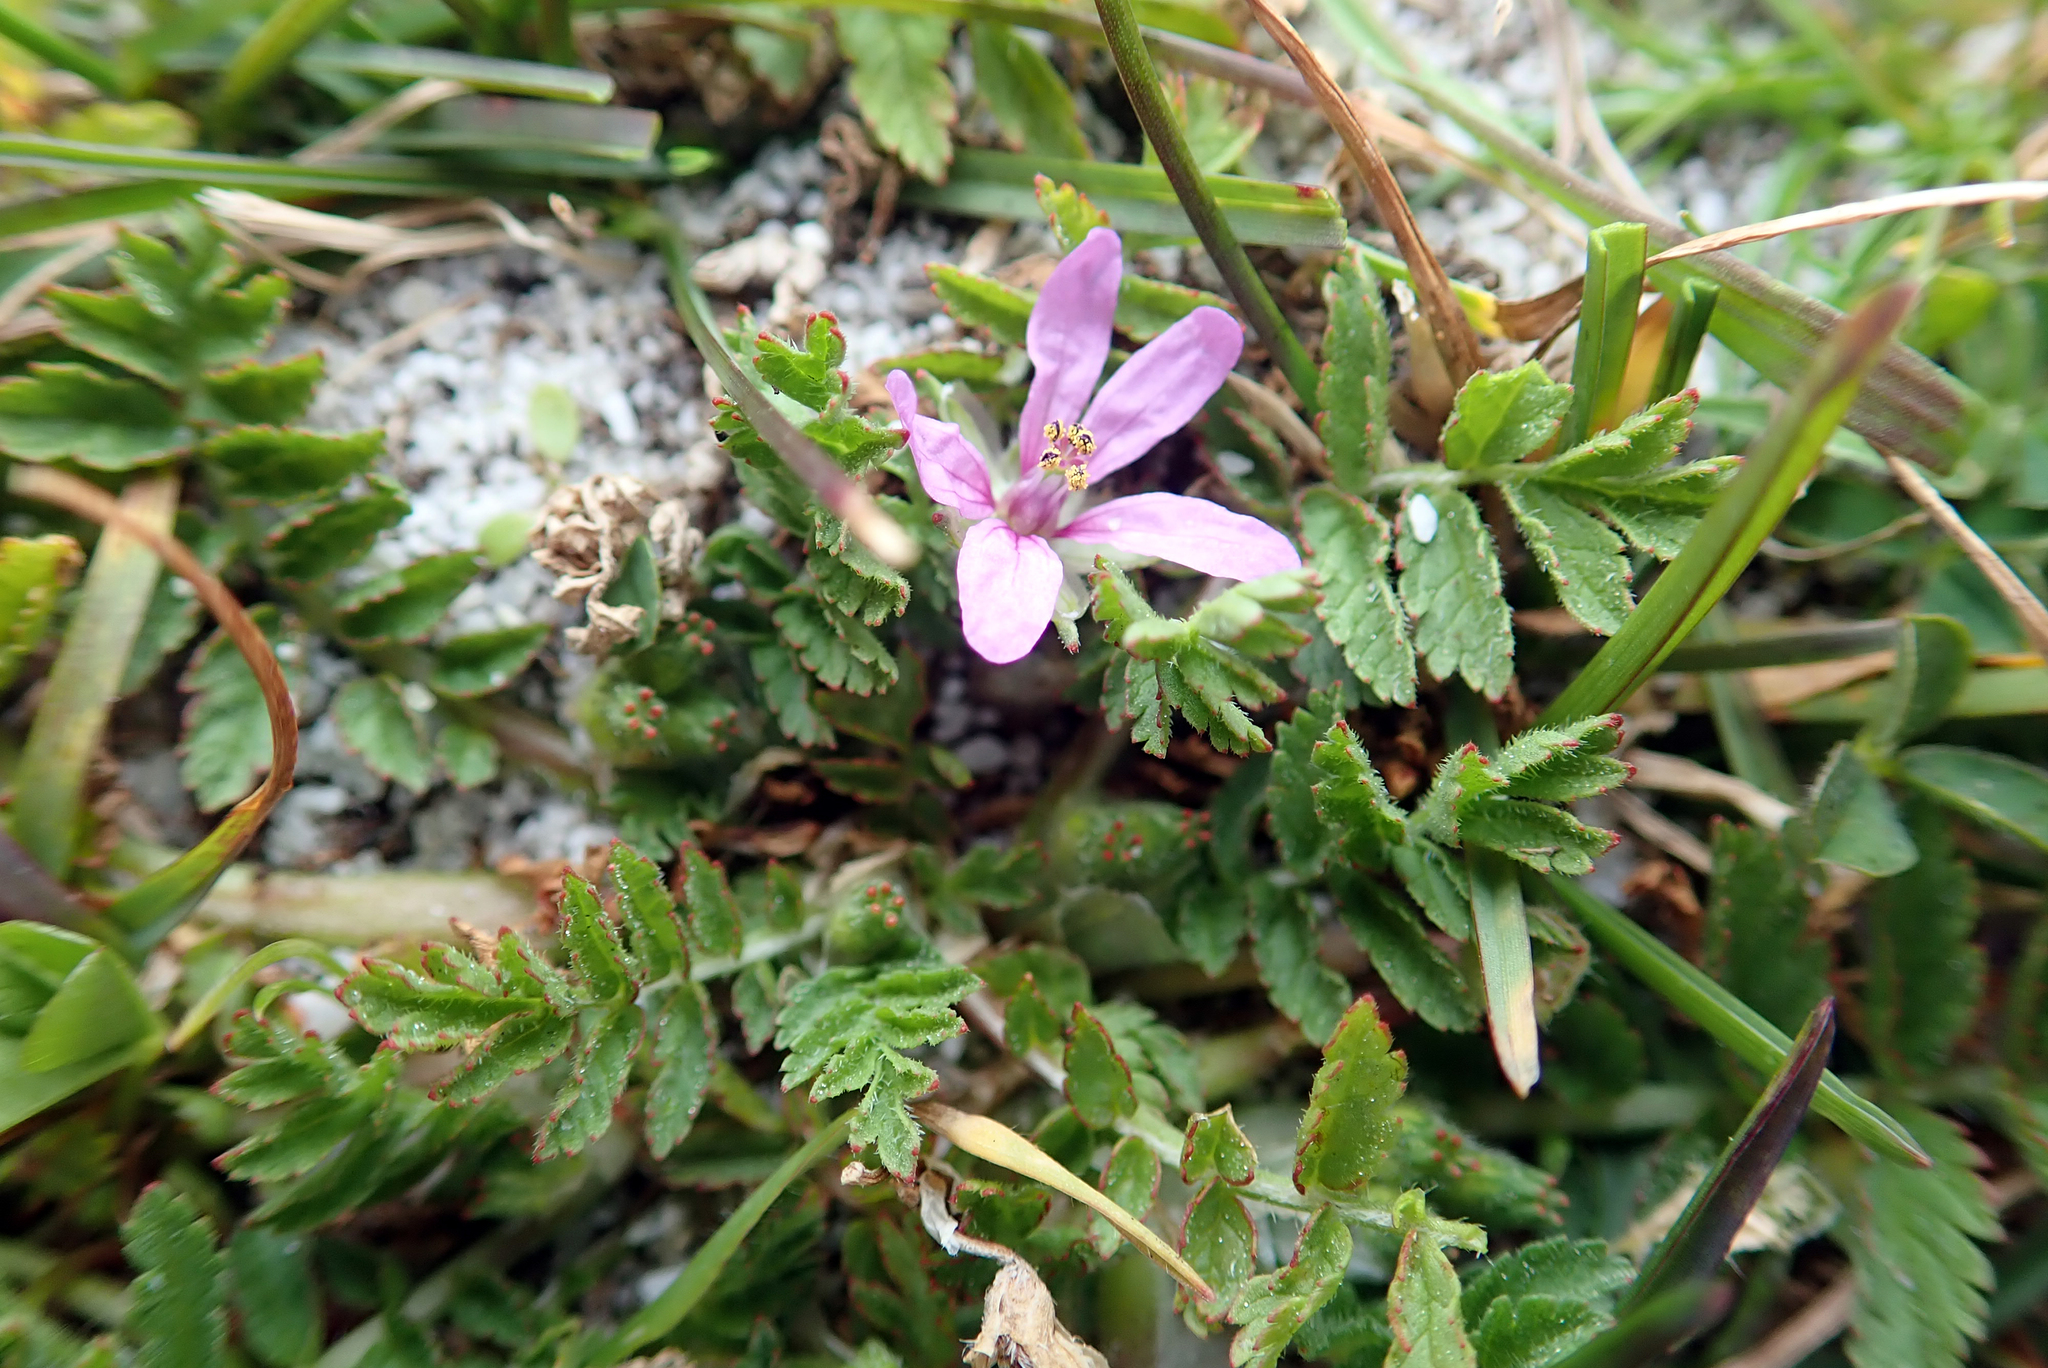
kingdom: Plantae
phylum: Tracheophyta
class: Magnoliopsida
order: Geraniales
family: Geraniaceae
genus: Erodium
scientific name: Erodium cicutarium
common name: Common stork's-bill
